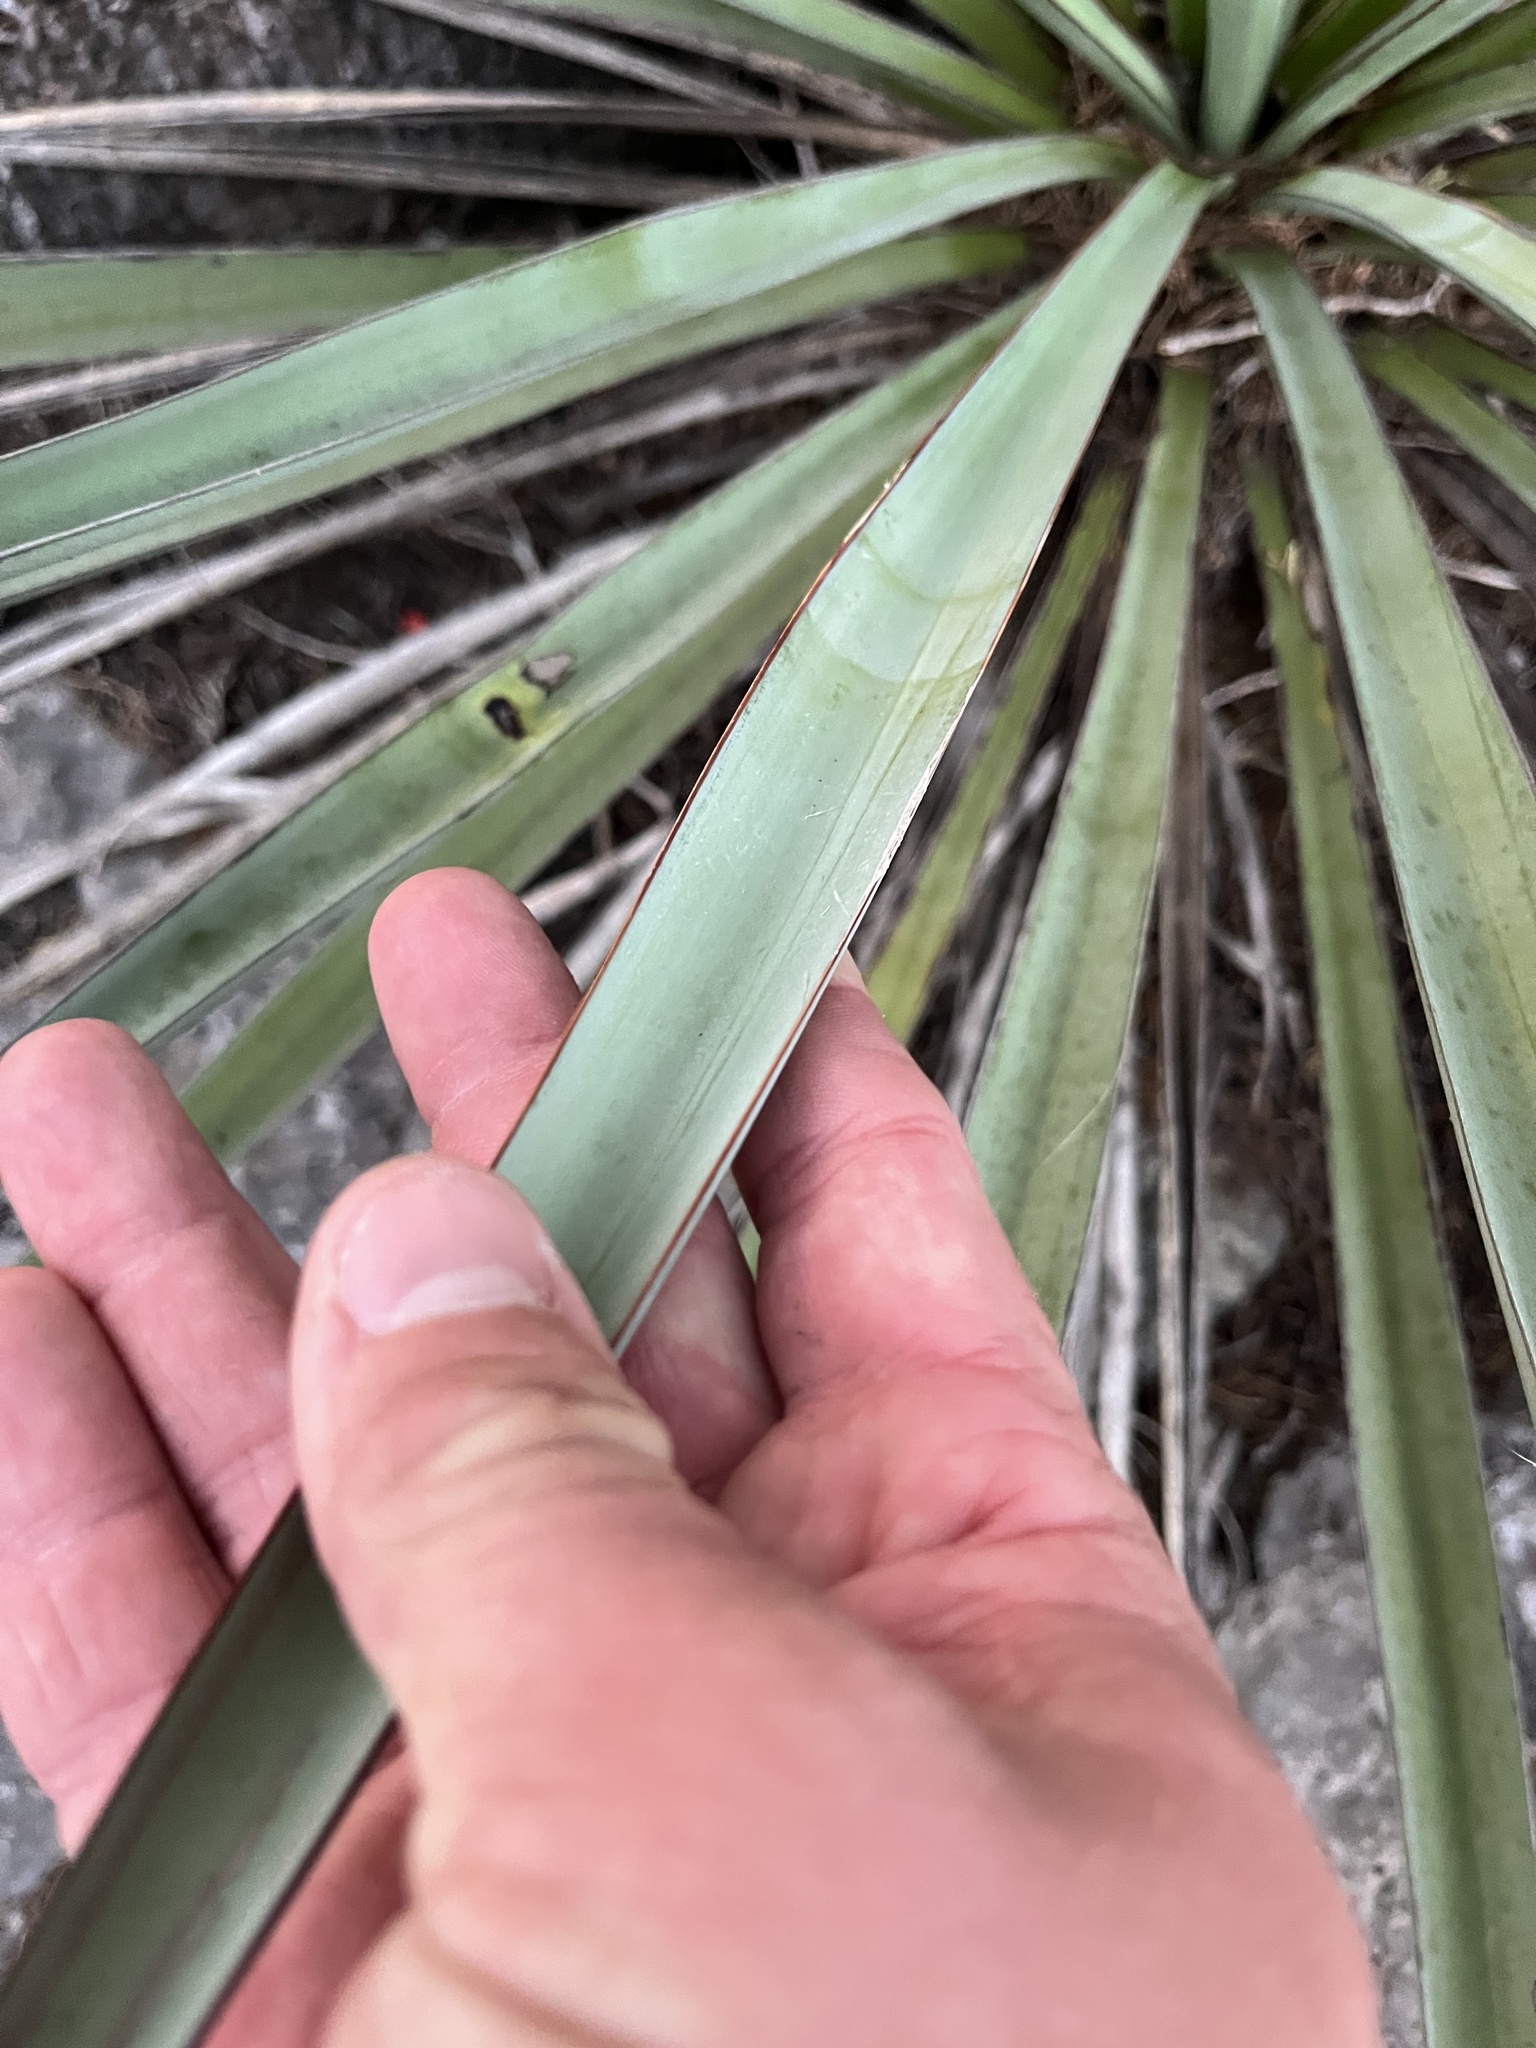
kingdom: Plantae
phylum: Tracheophyta
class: Liliopsida
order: Asparagales
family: Asparagaceae
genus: Yucca
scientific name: Yucca treculiana
